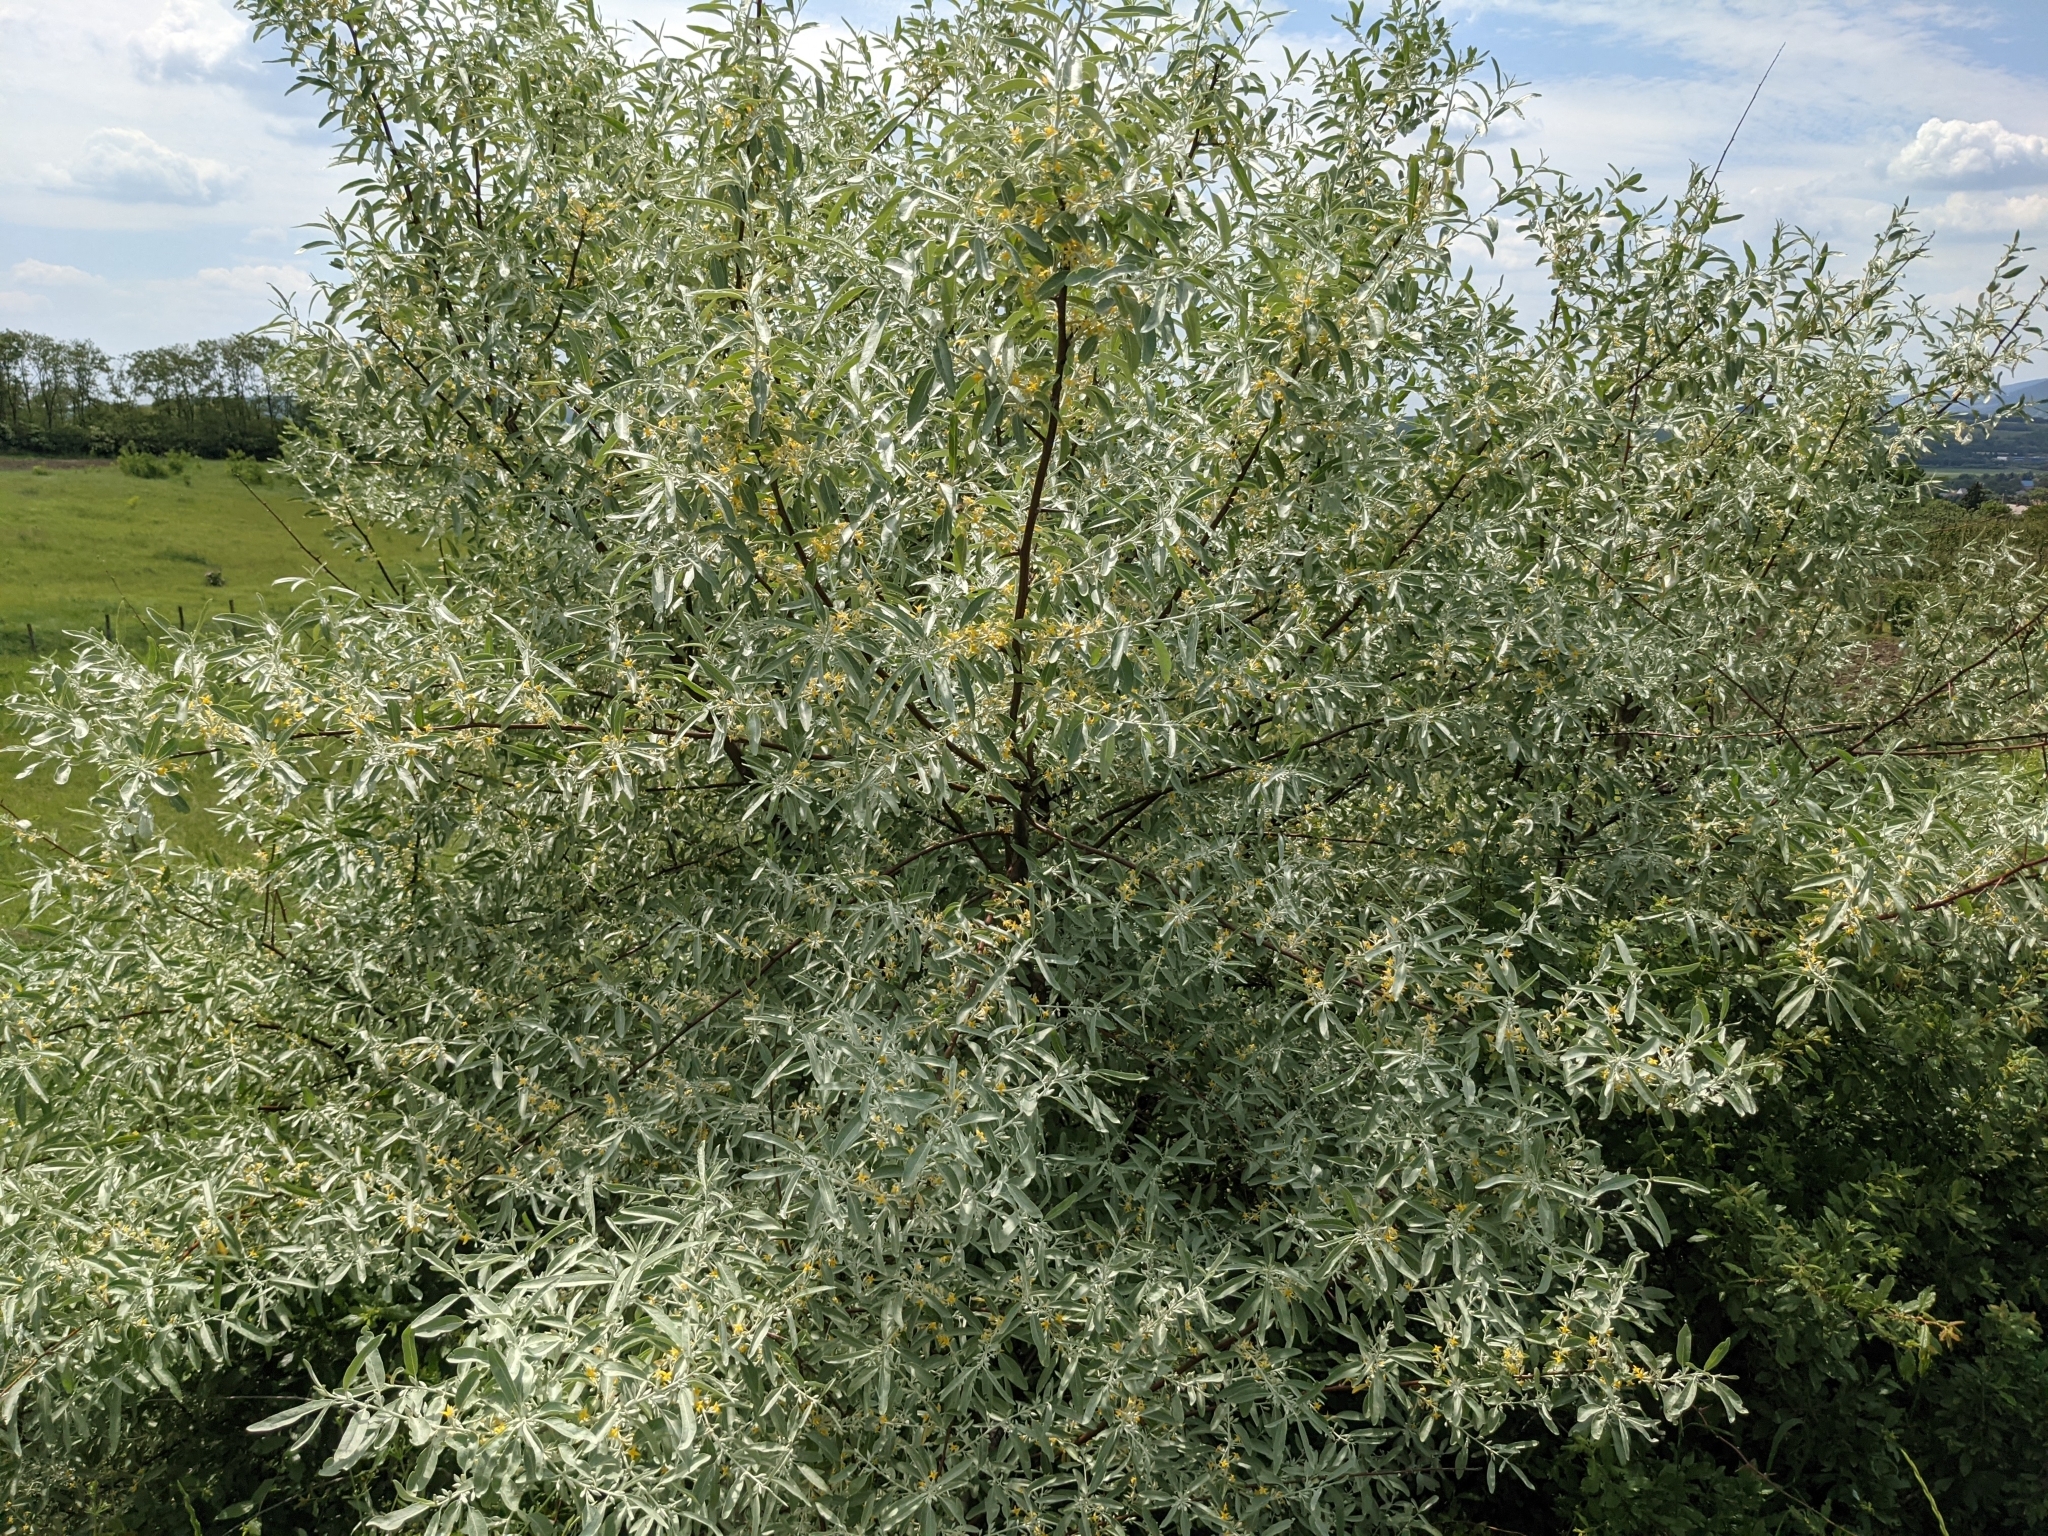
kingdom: Plantae
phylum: Tracheophyta
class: Magnoliopsida
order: Rosales
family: Elaeagnaceae
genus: Elaeagnus
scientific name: Elaeagnus angustifolia
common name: Russian olive
